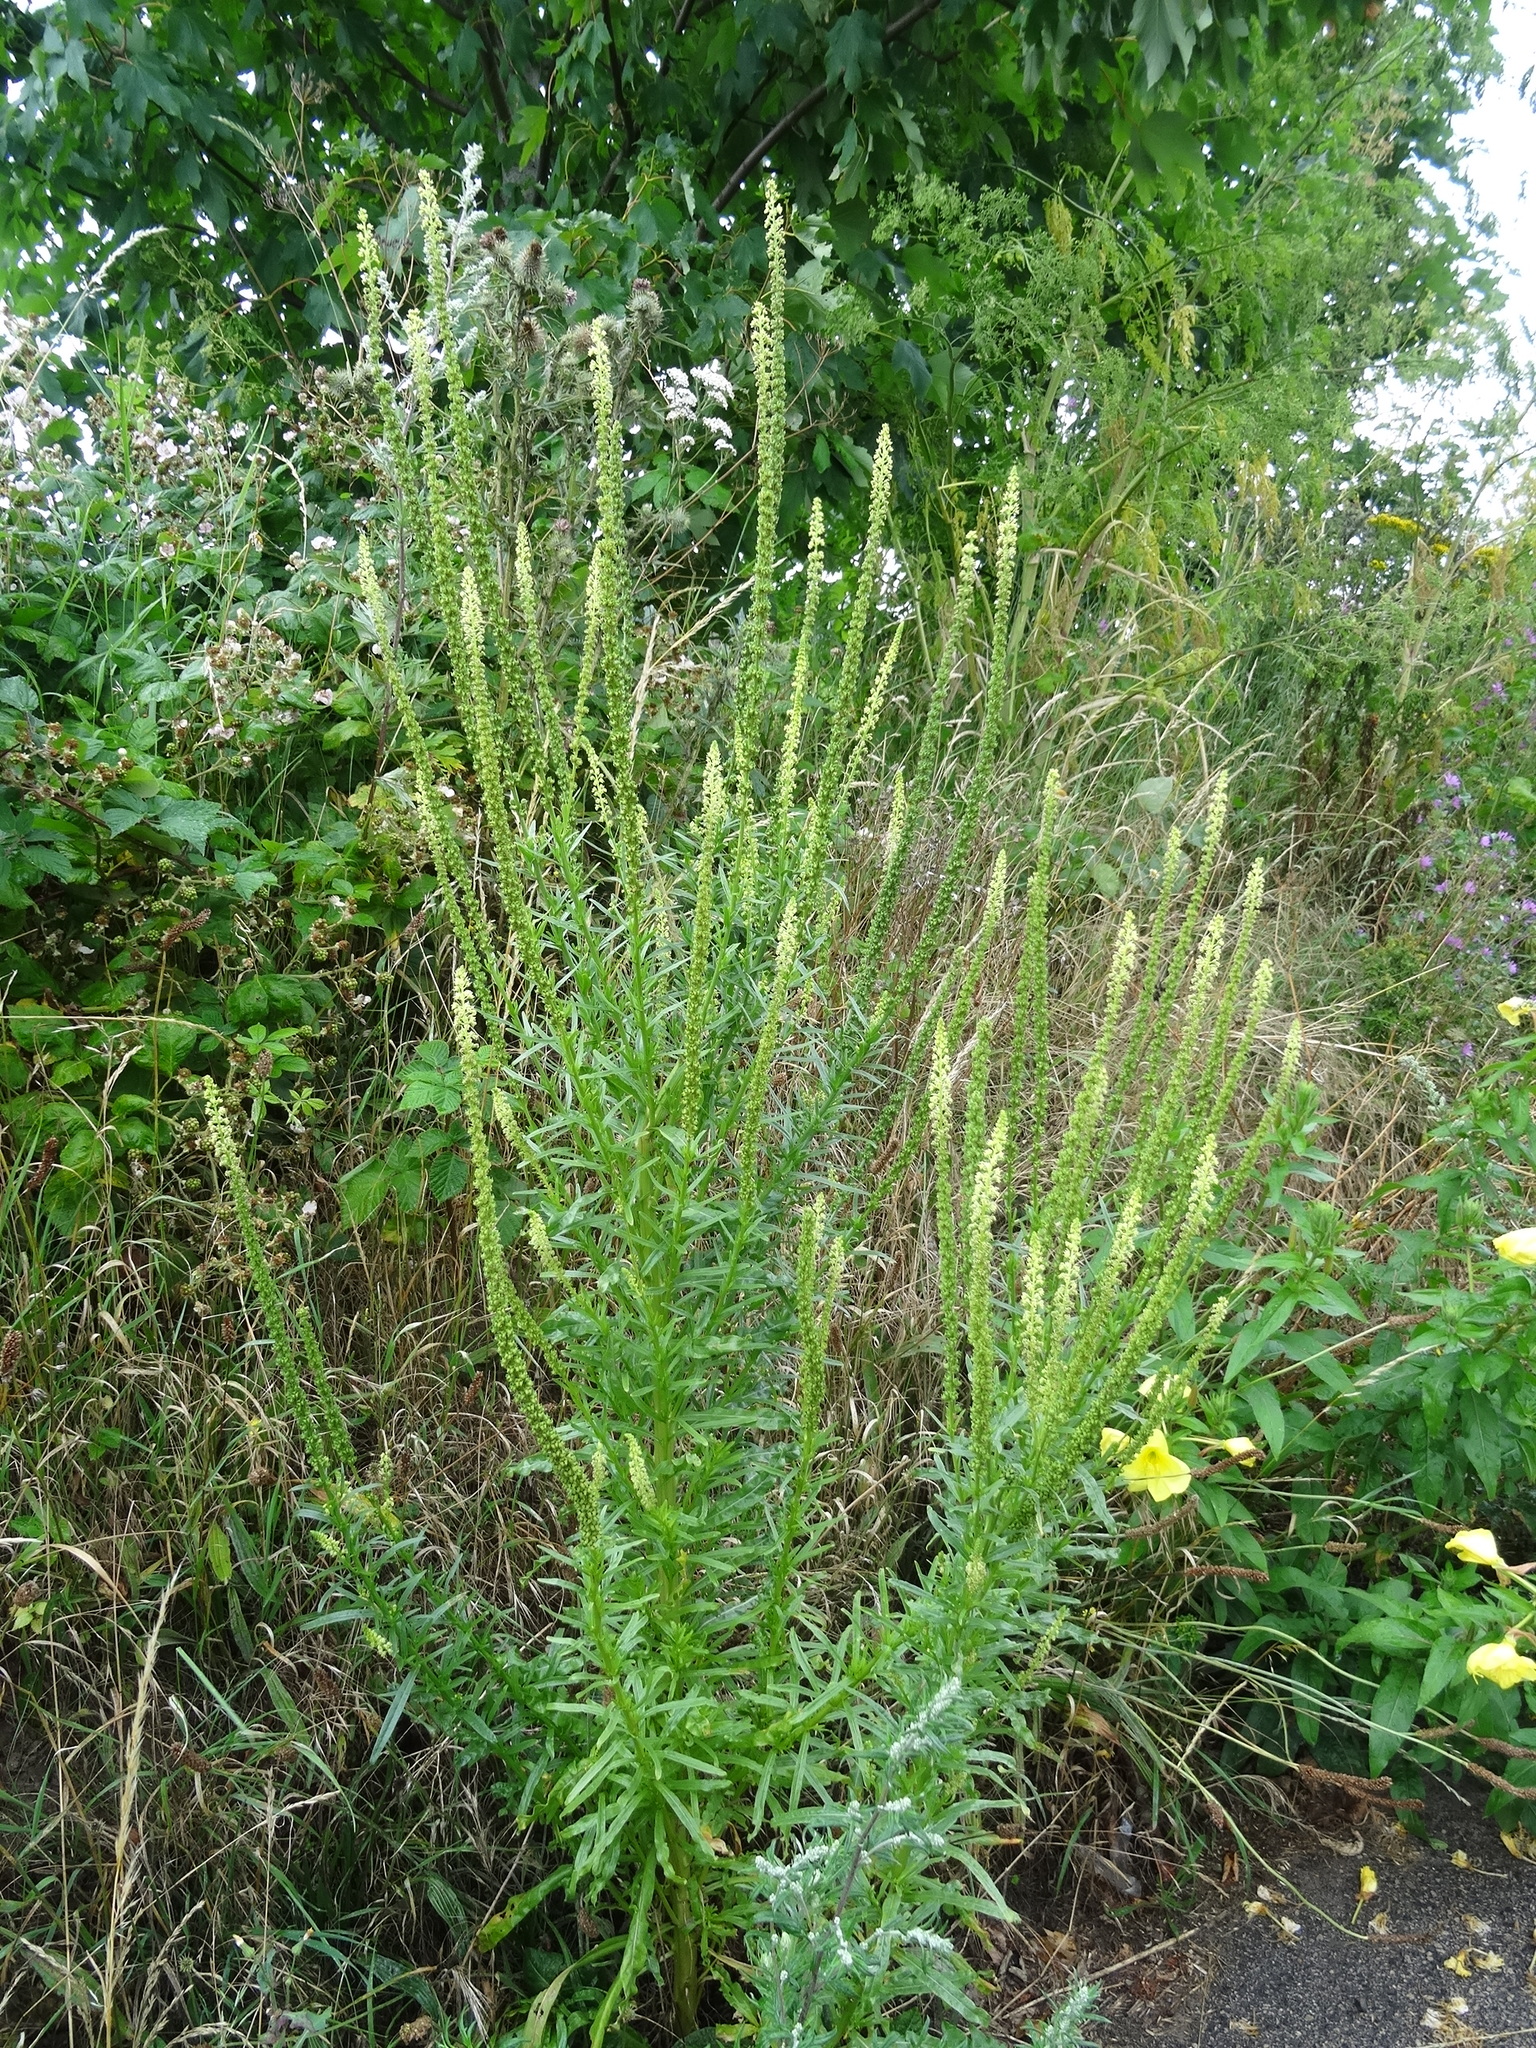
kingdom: Plantae
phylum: Tracheophyta
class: Magnoliopsida
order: Brassicales
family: Resedaceae
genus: Reseda
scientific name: Reseda luteola
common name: Weld
